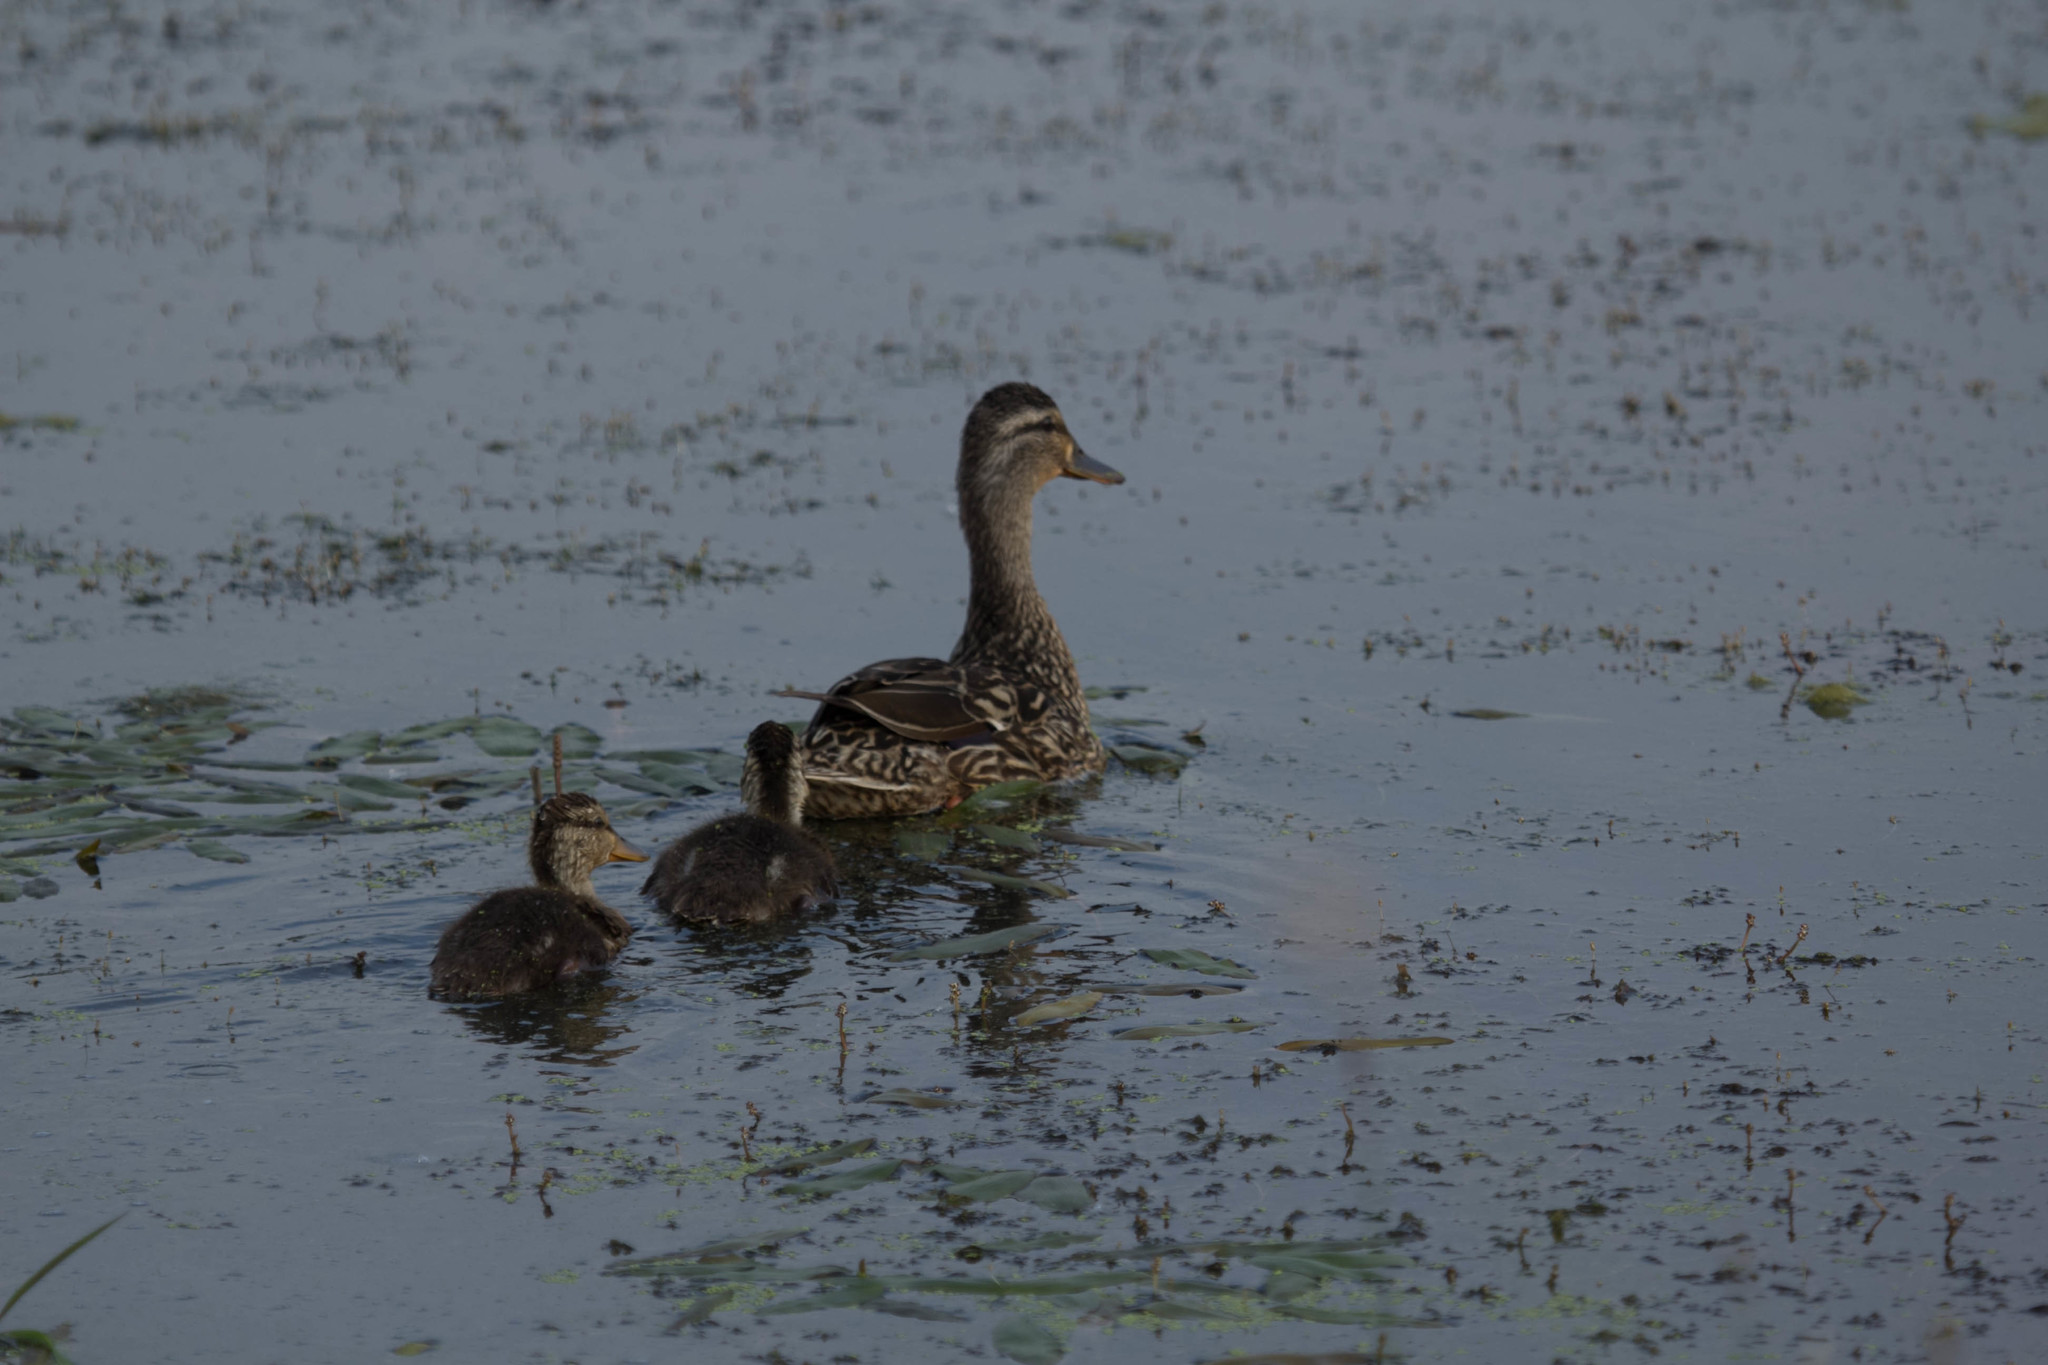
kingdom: Animalia
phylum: Chordata
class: Aves
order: Anseriformes
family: Anatidae
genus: Anas
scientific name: Anas platyrhynchos
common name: Mallard
